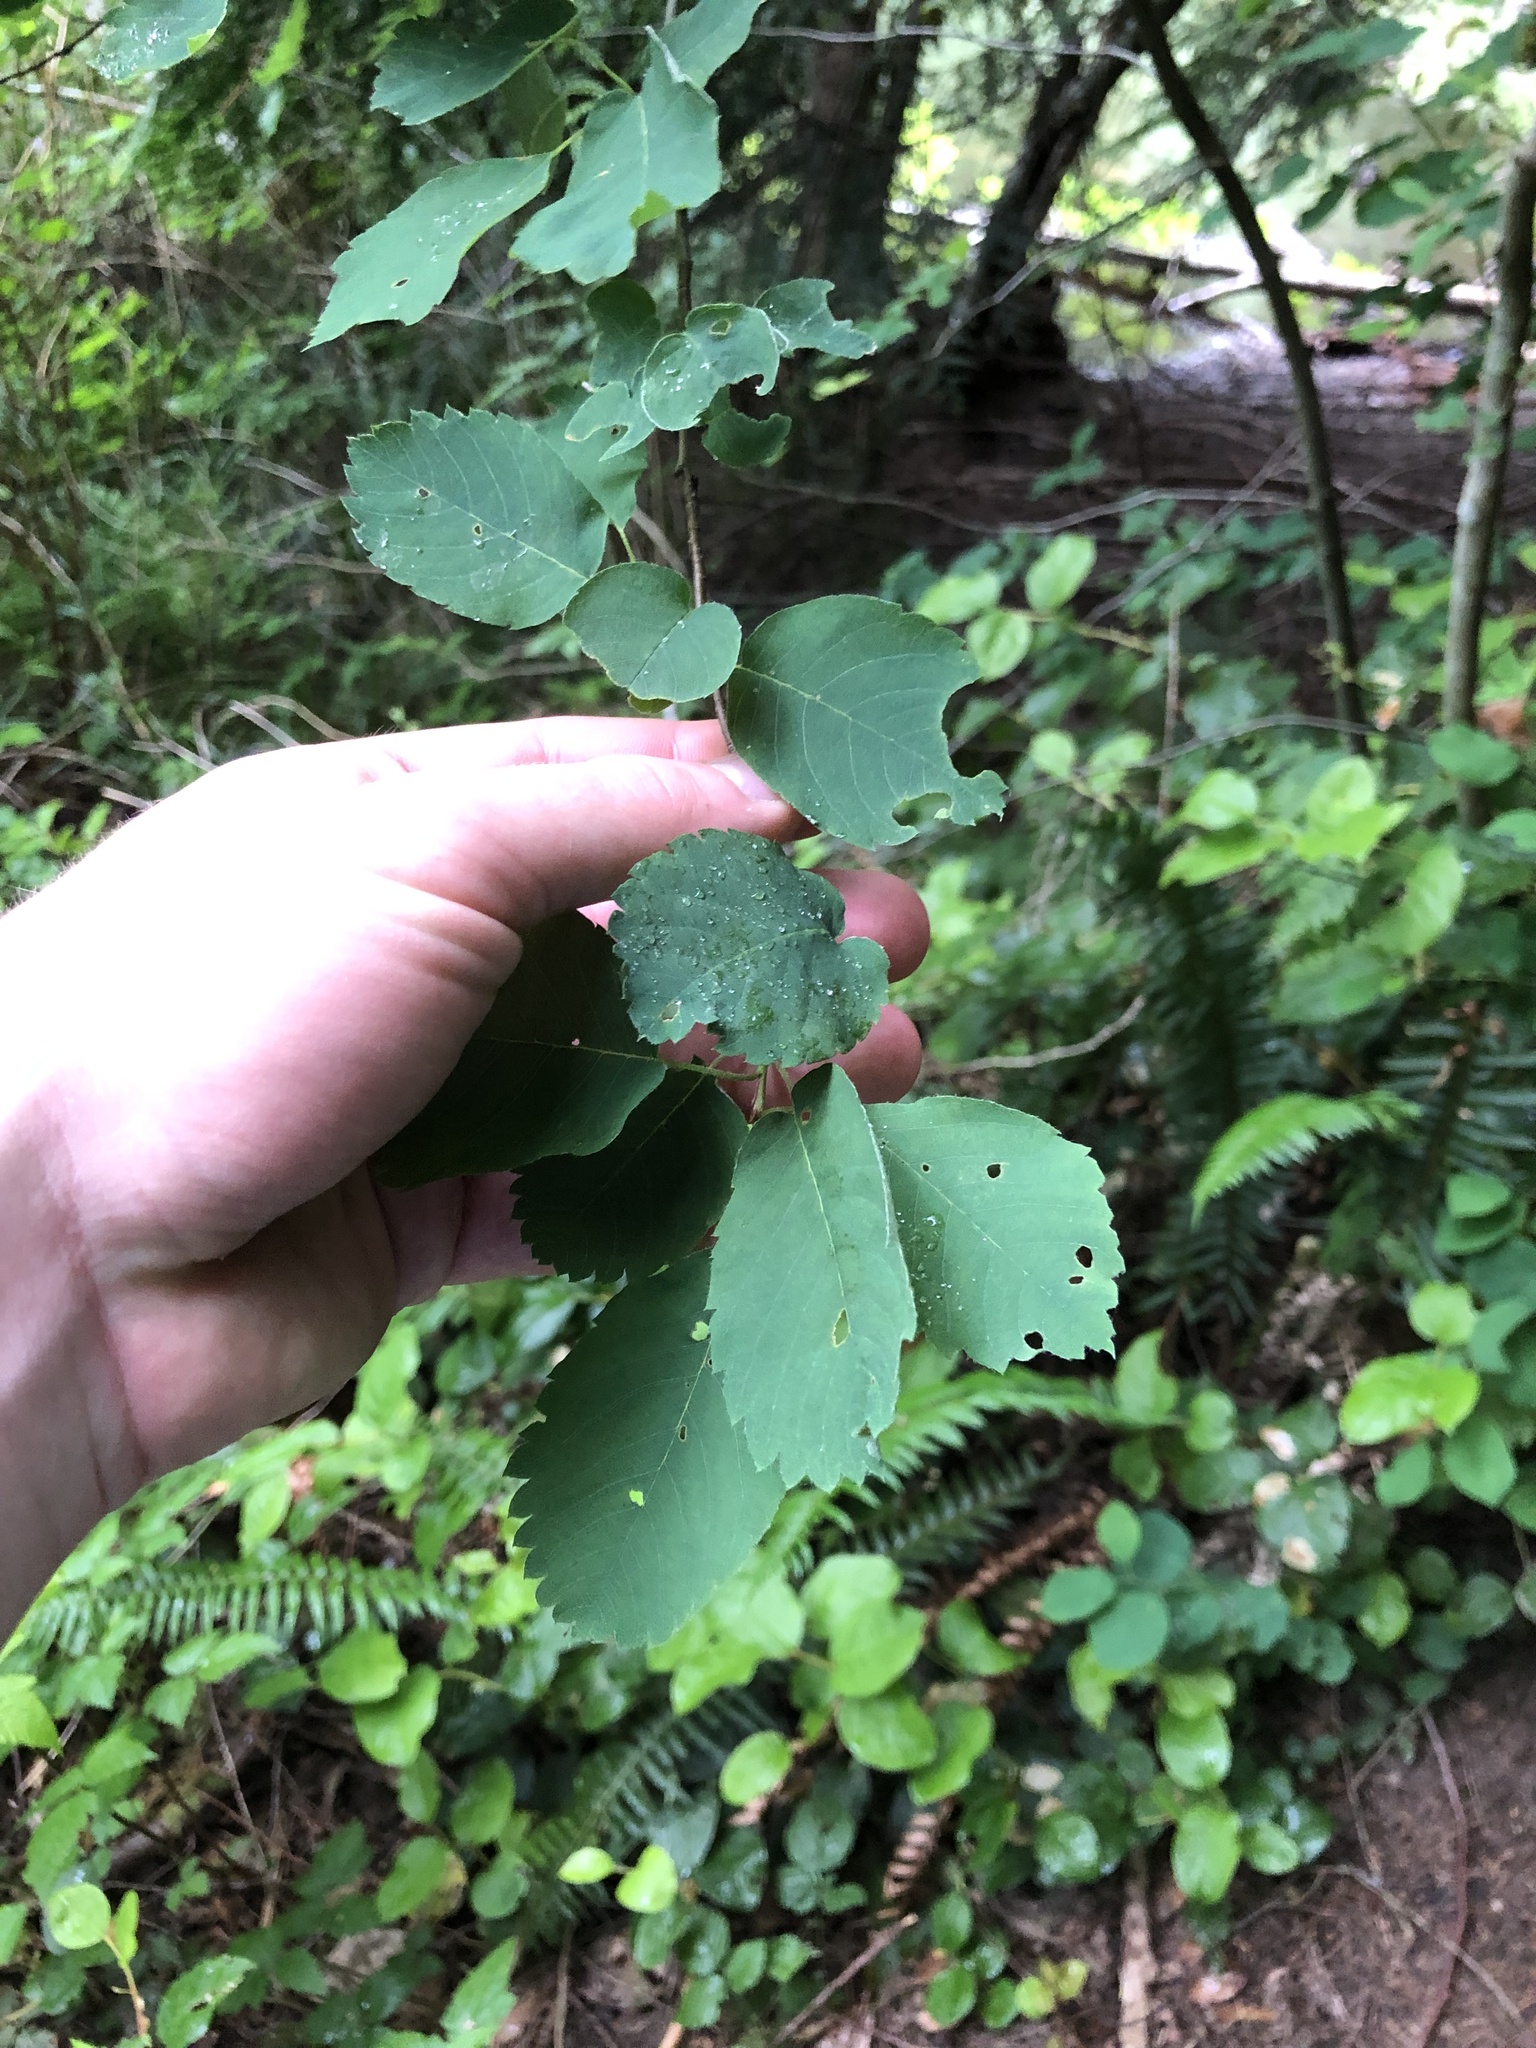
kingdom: Plantae
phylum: Tracheophyta
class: Magnoliopsida
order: Rosales
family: Rosaceae
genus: Amelanchier
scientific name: Amelanchier alnifolia
